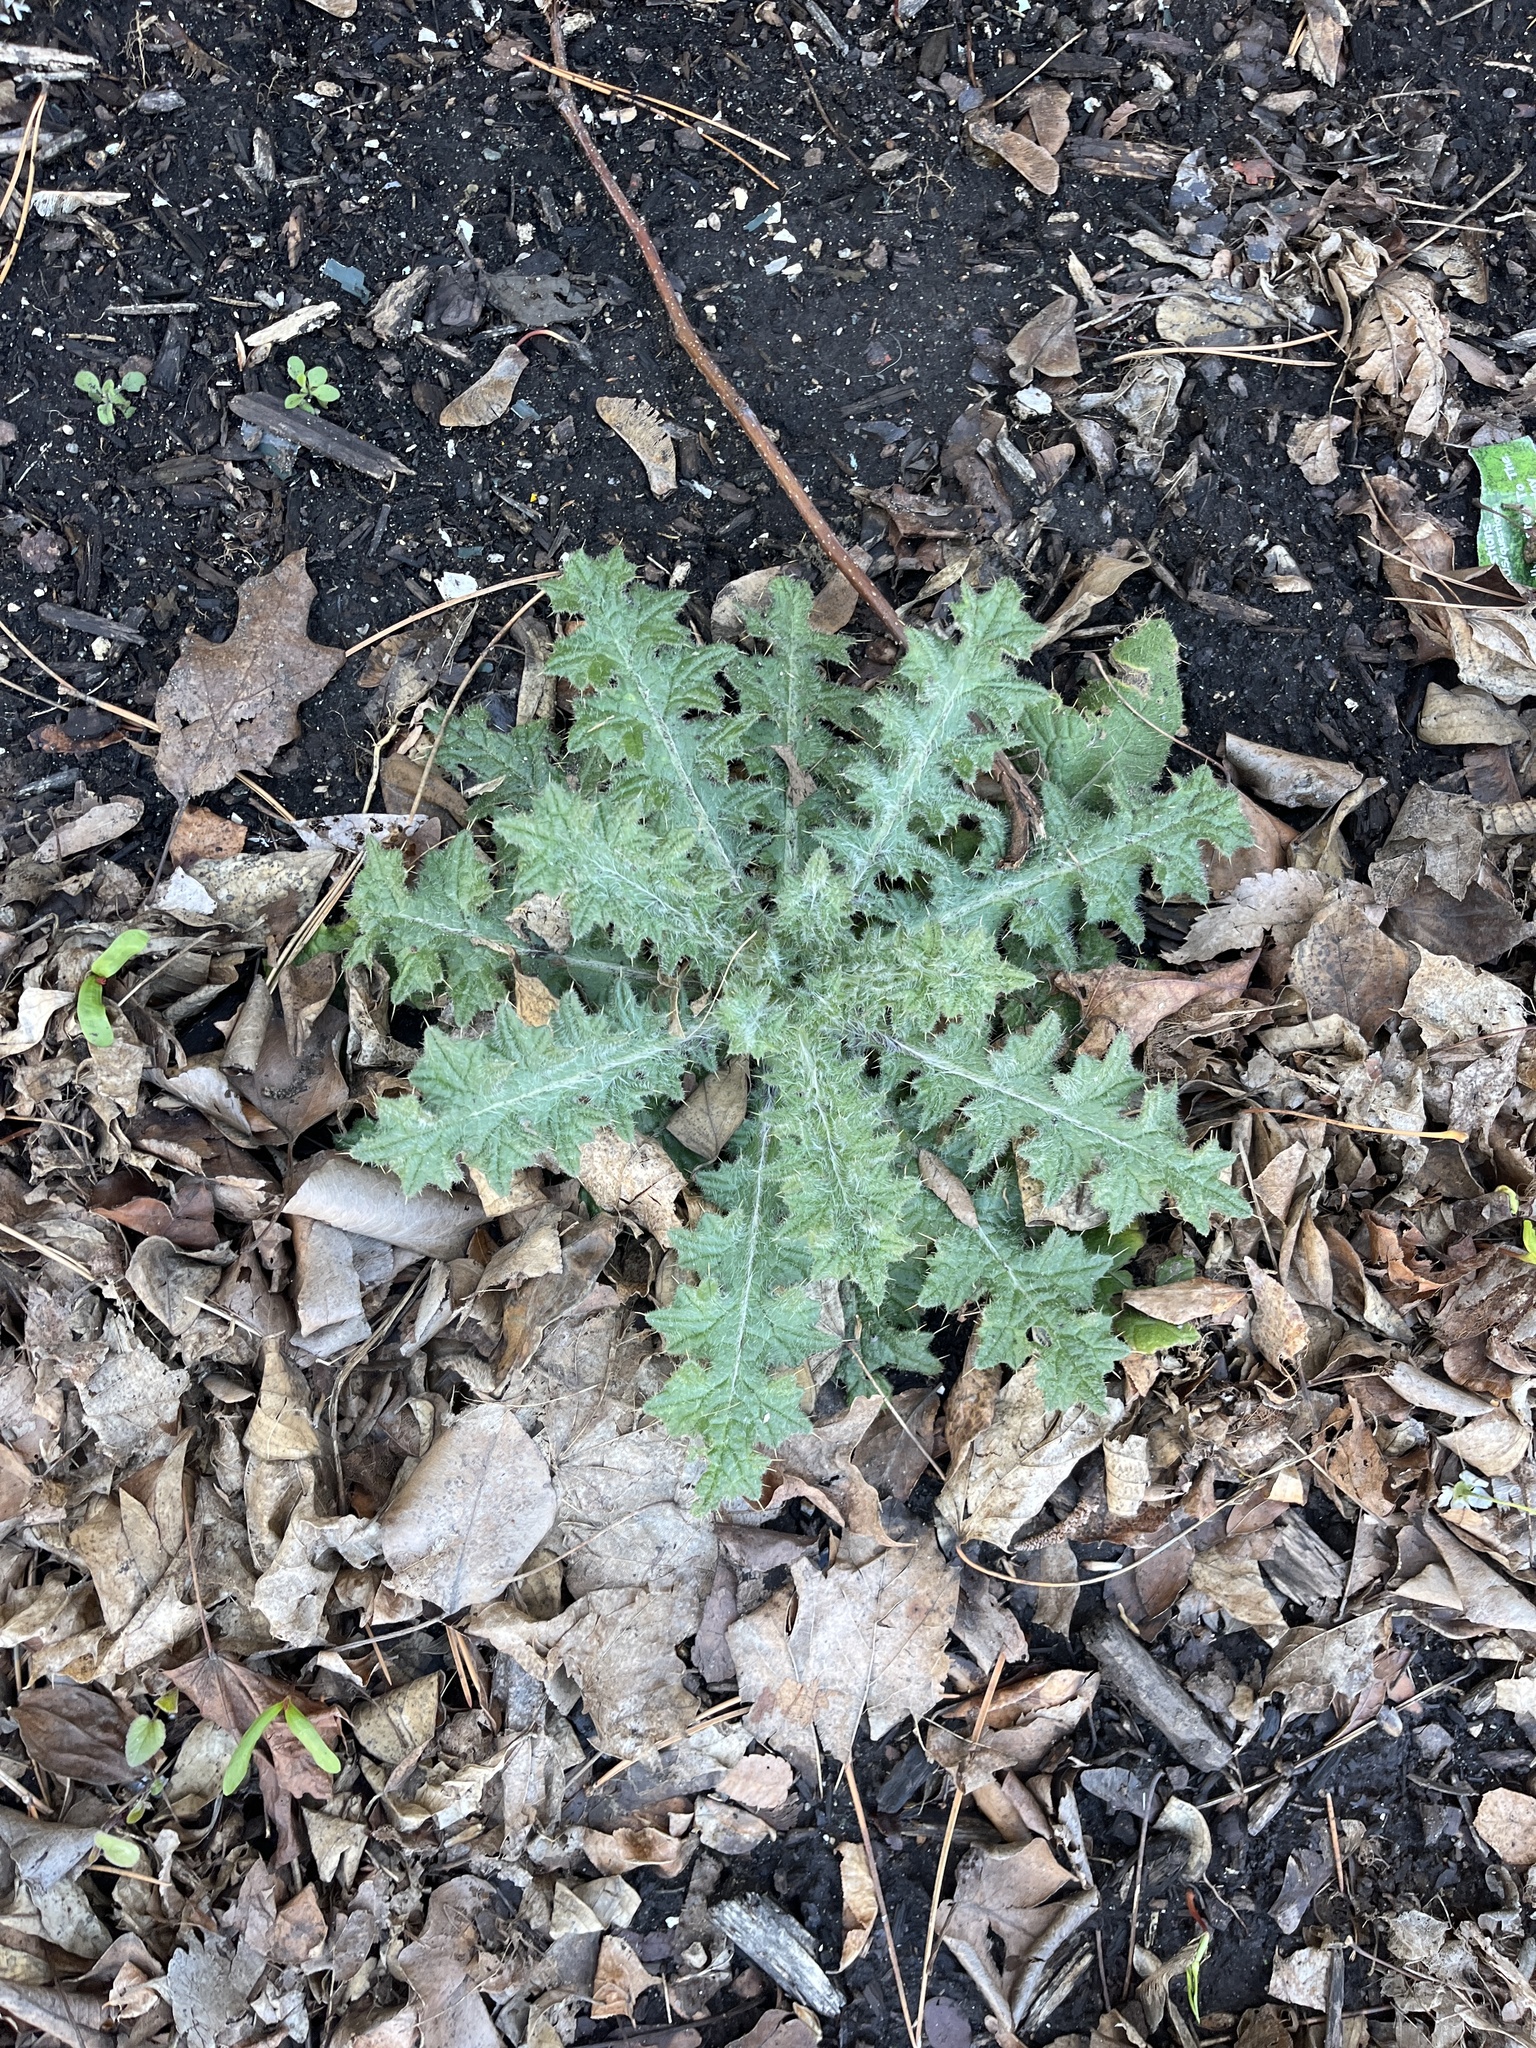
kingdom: Plantae
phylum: Tracheophyta
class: Magnoliopsida
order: Asterales
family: Asteraceae
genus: Cirsium
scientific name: Cirsium vulgare
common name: Bull thistle
